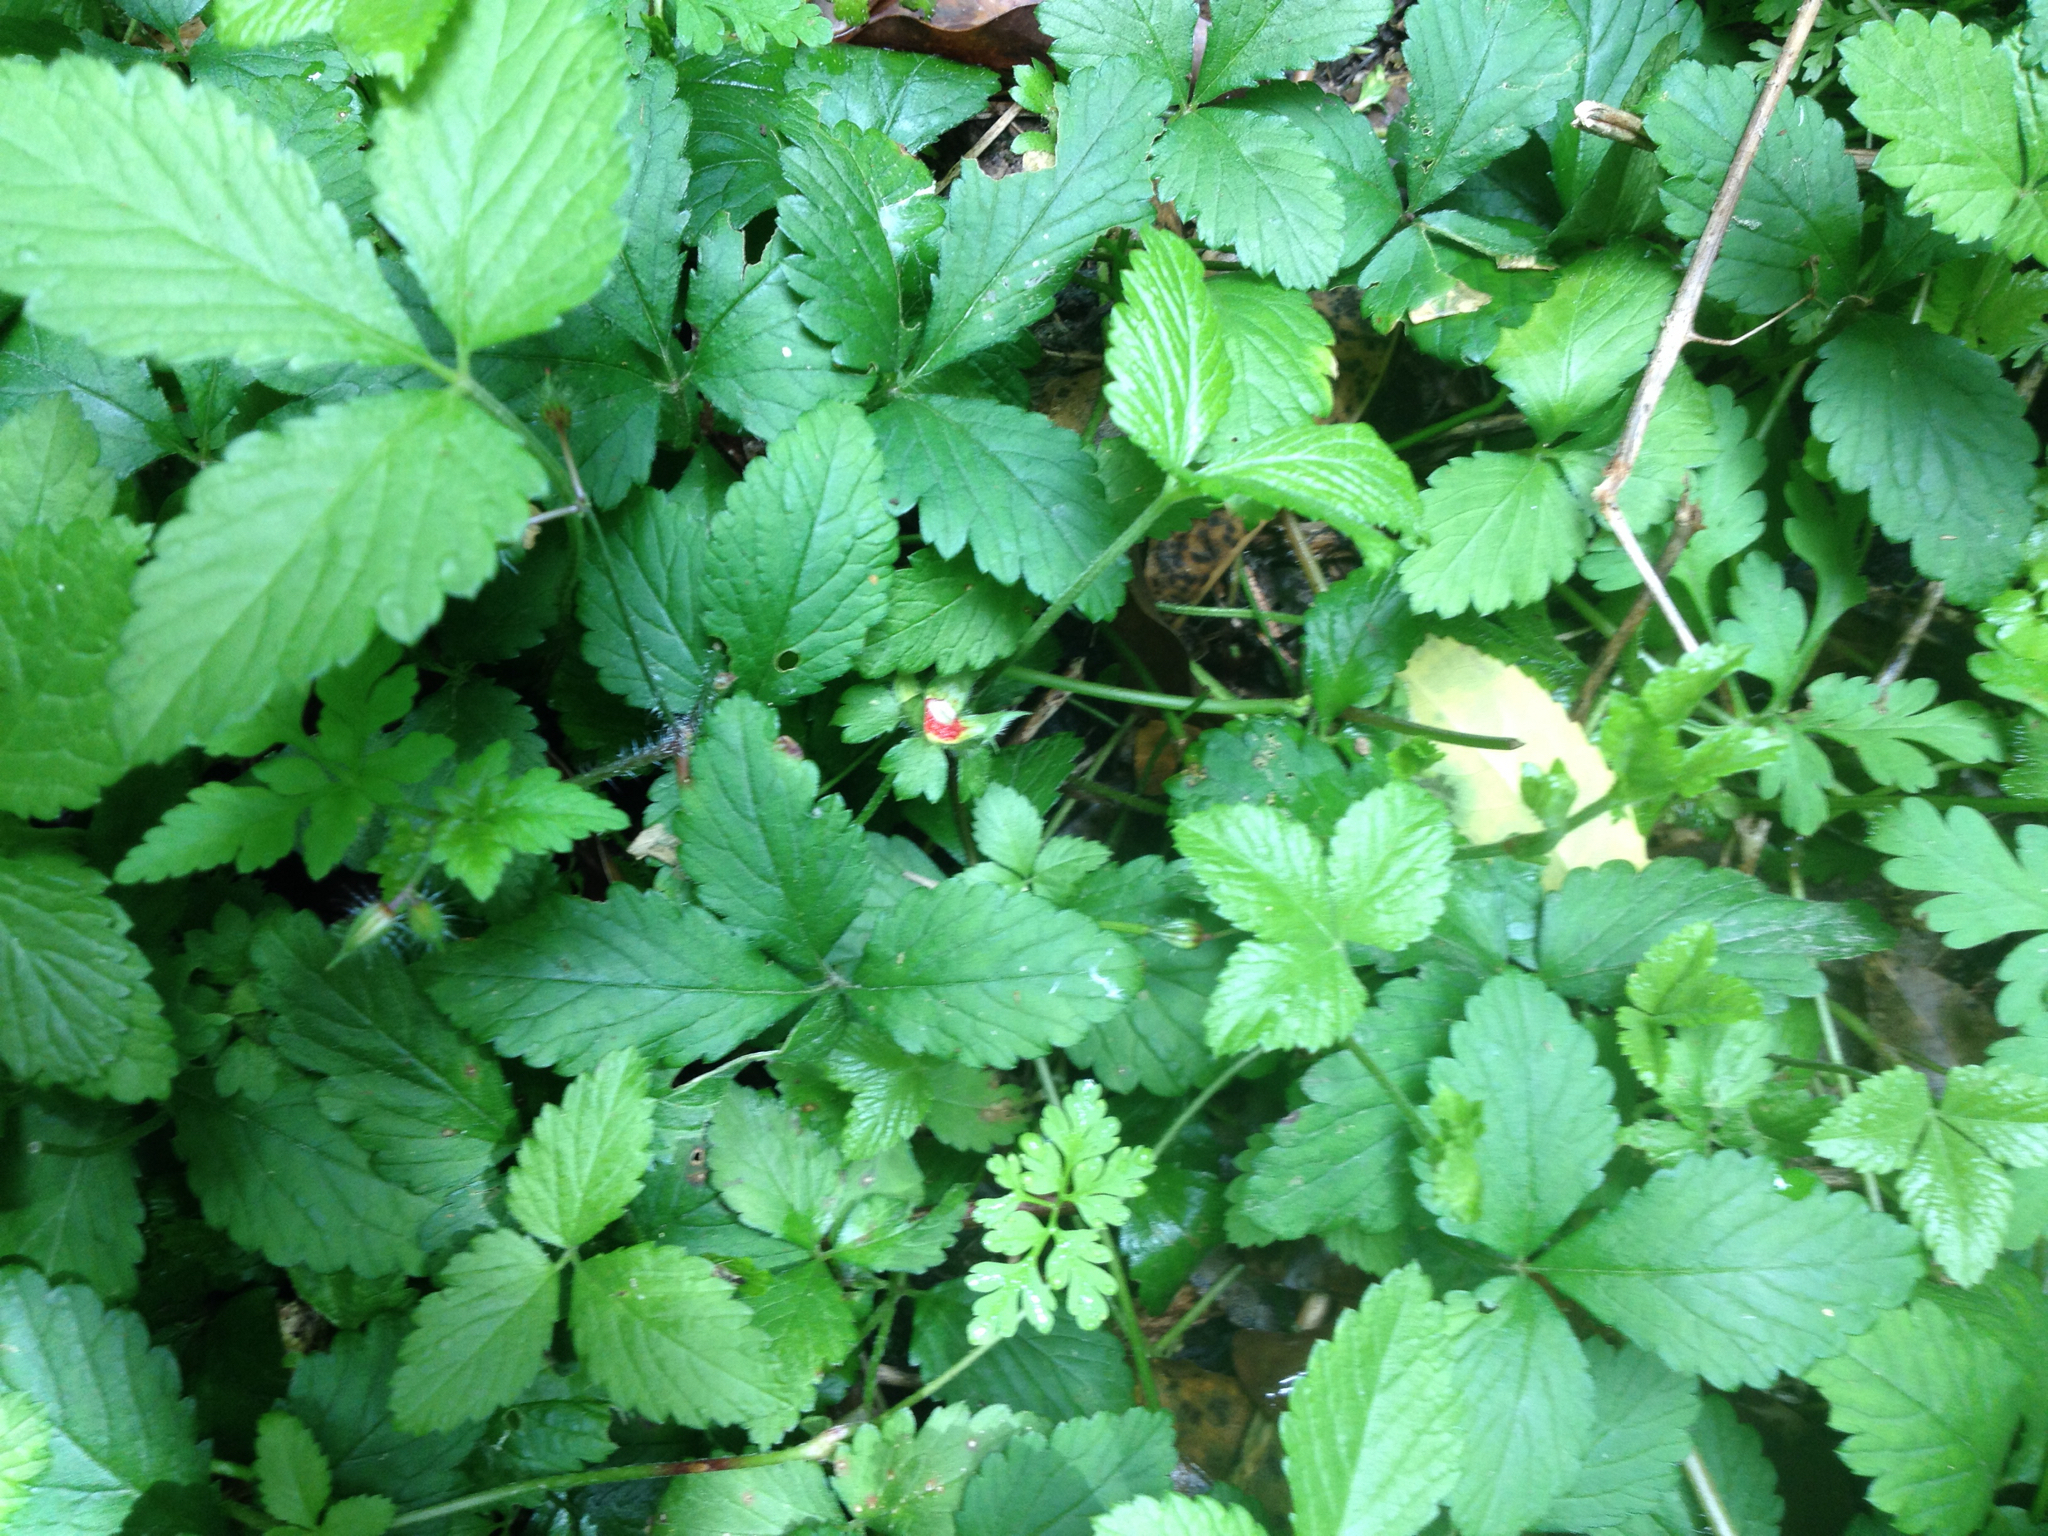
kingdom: Plantae
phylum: Tracheophyta
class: Magnoliopsida
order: Rosales
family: Rosaceae
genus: Potentilla
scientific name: Potentilla indica
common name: Yellow-flowered strawberry
